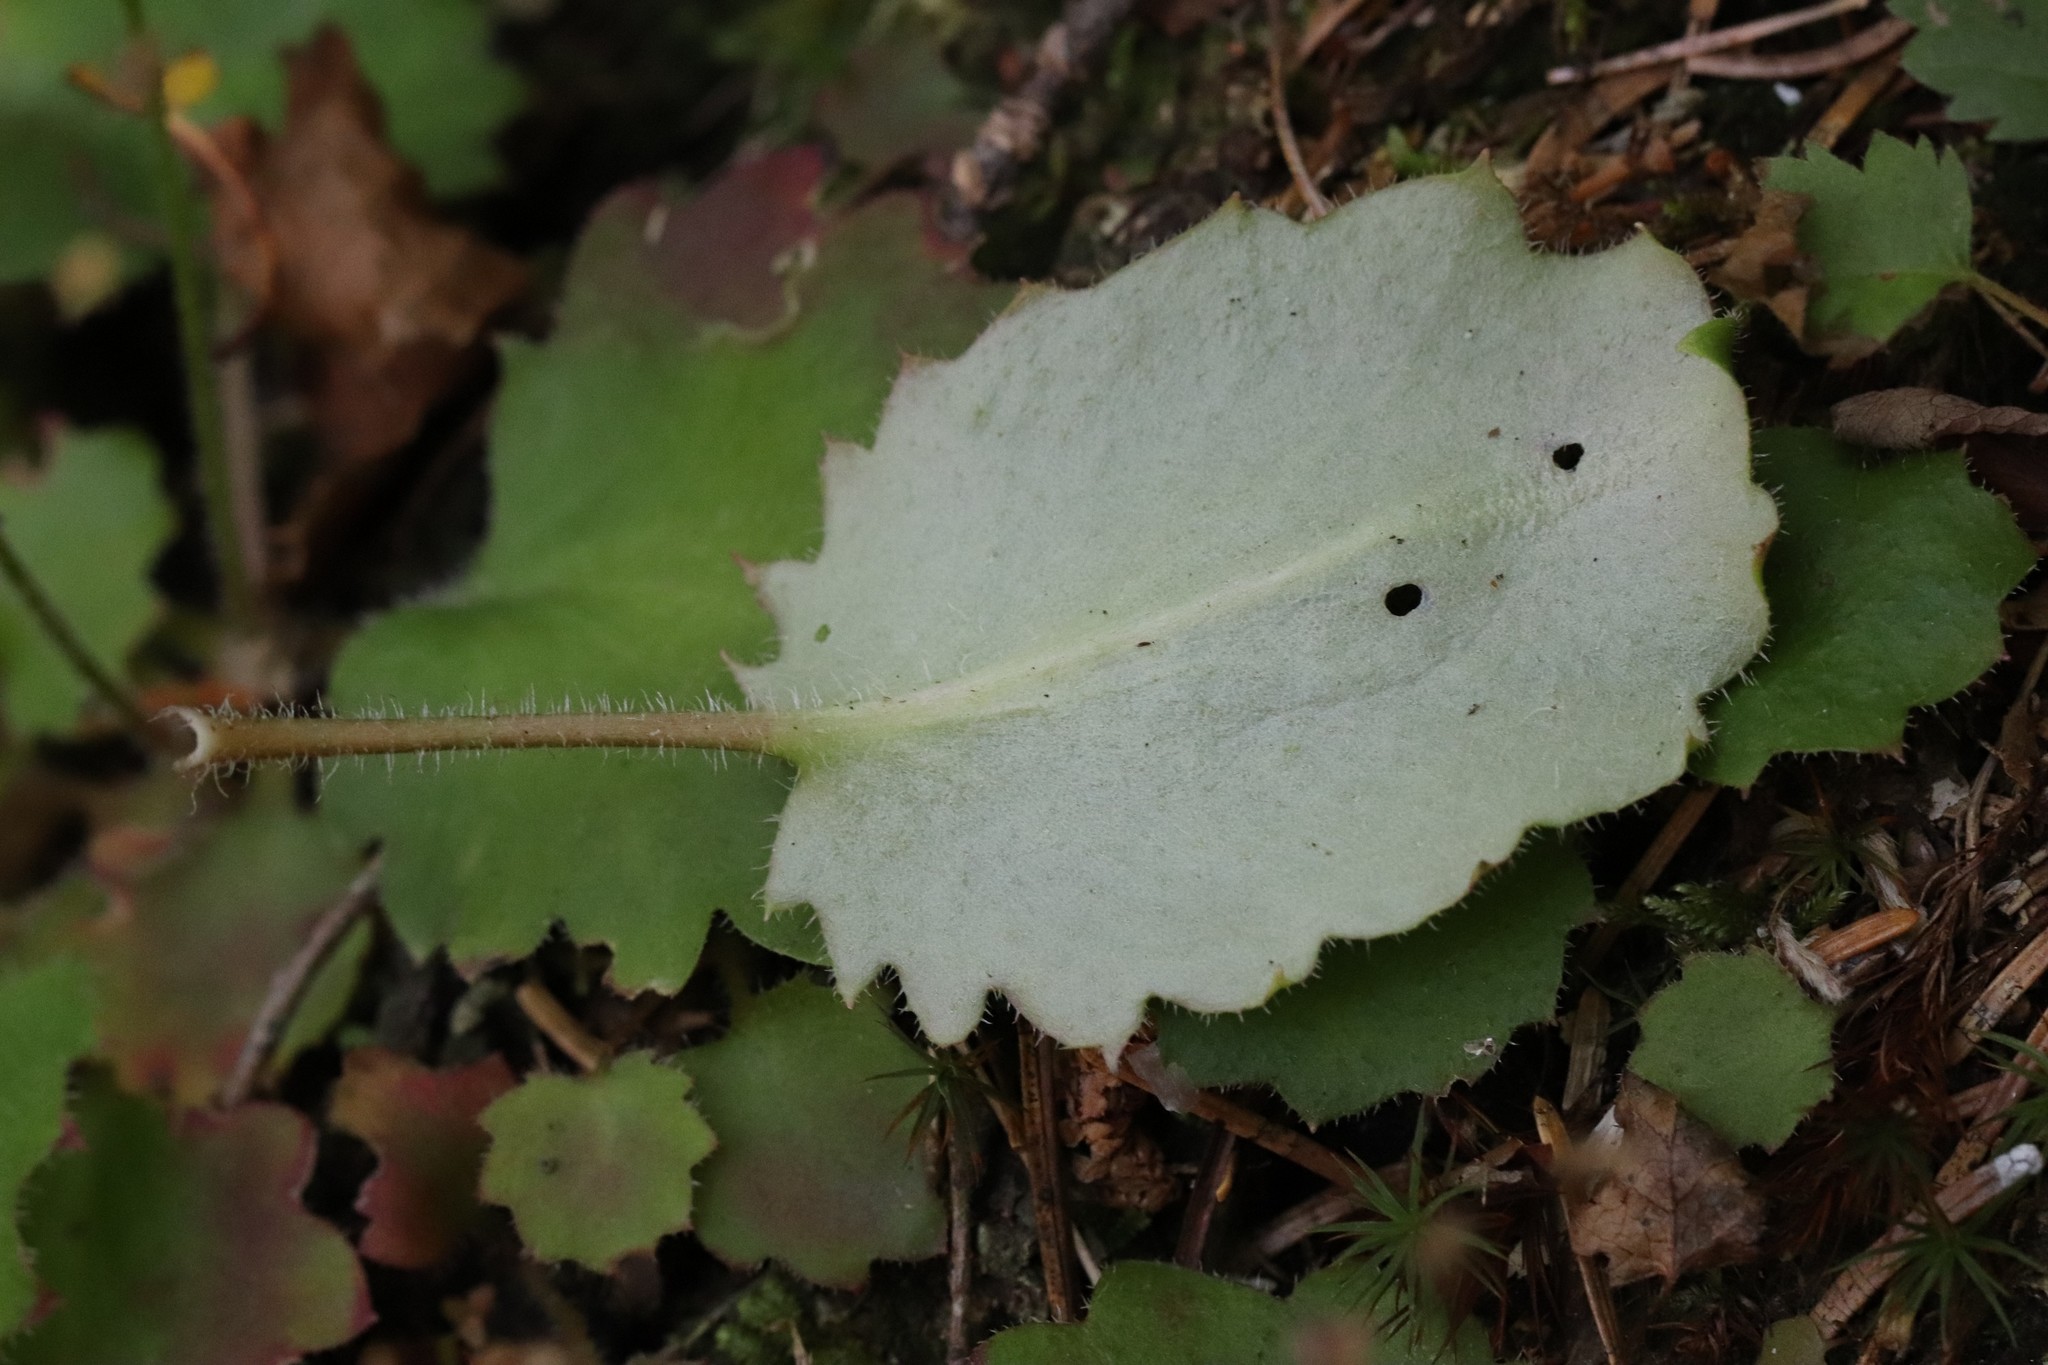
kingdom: Plantae
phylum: Tracheophyta
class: Magnoliopsida
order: Saxifragales
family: Saxifragaceae
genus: Micranthes
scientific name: Micranthes oblongifolia
